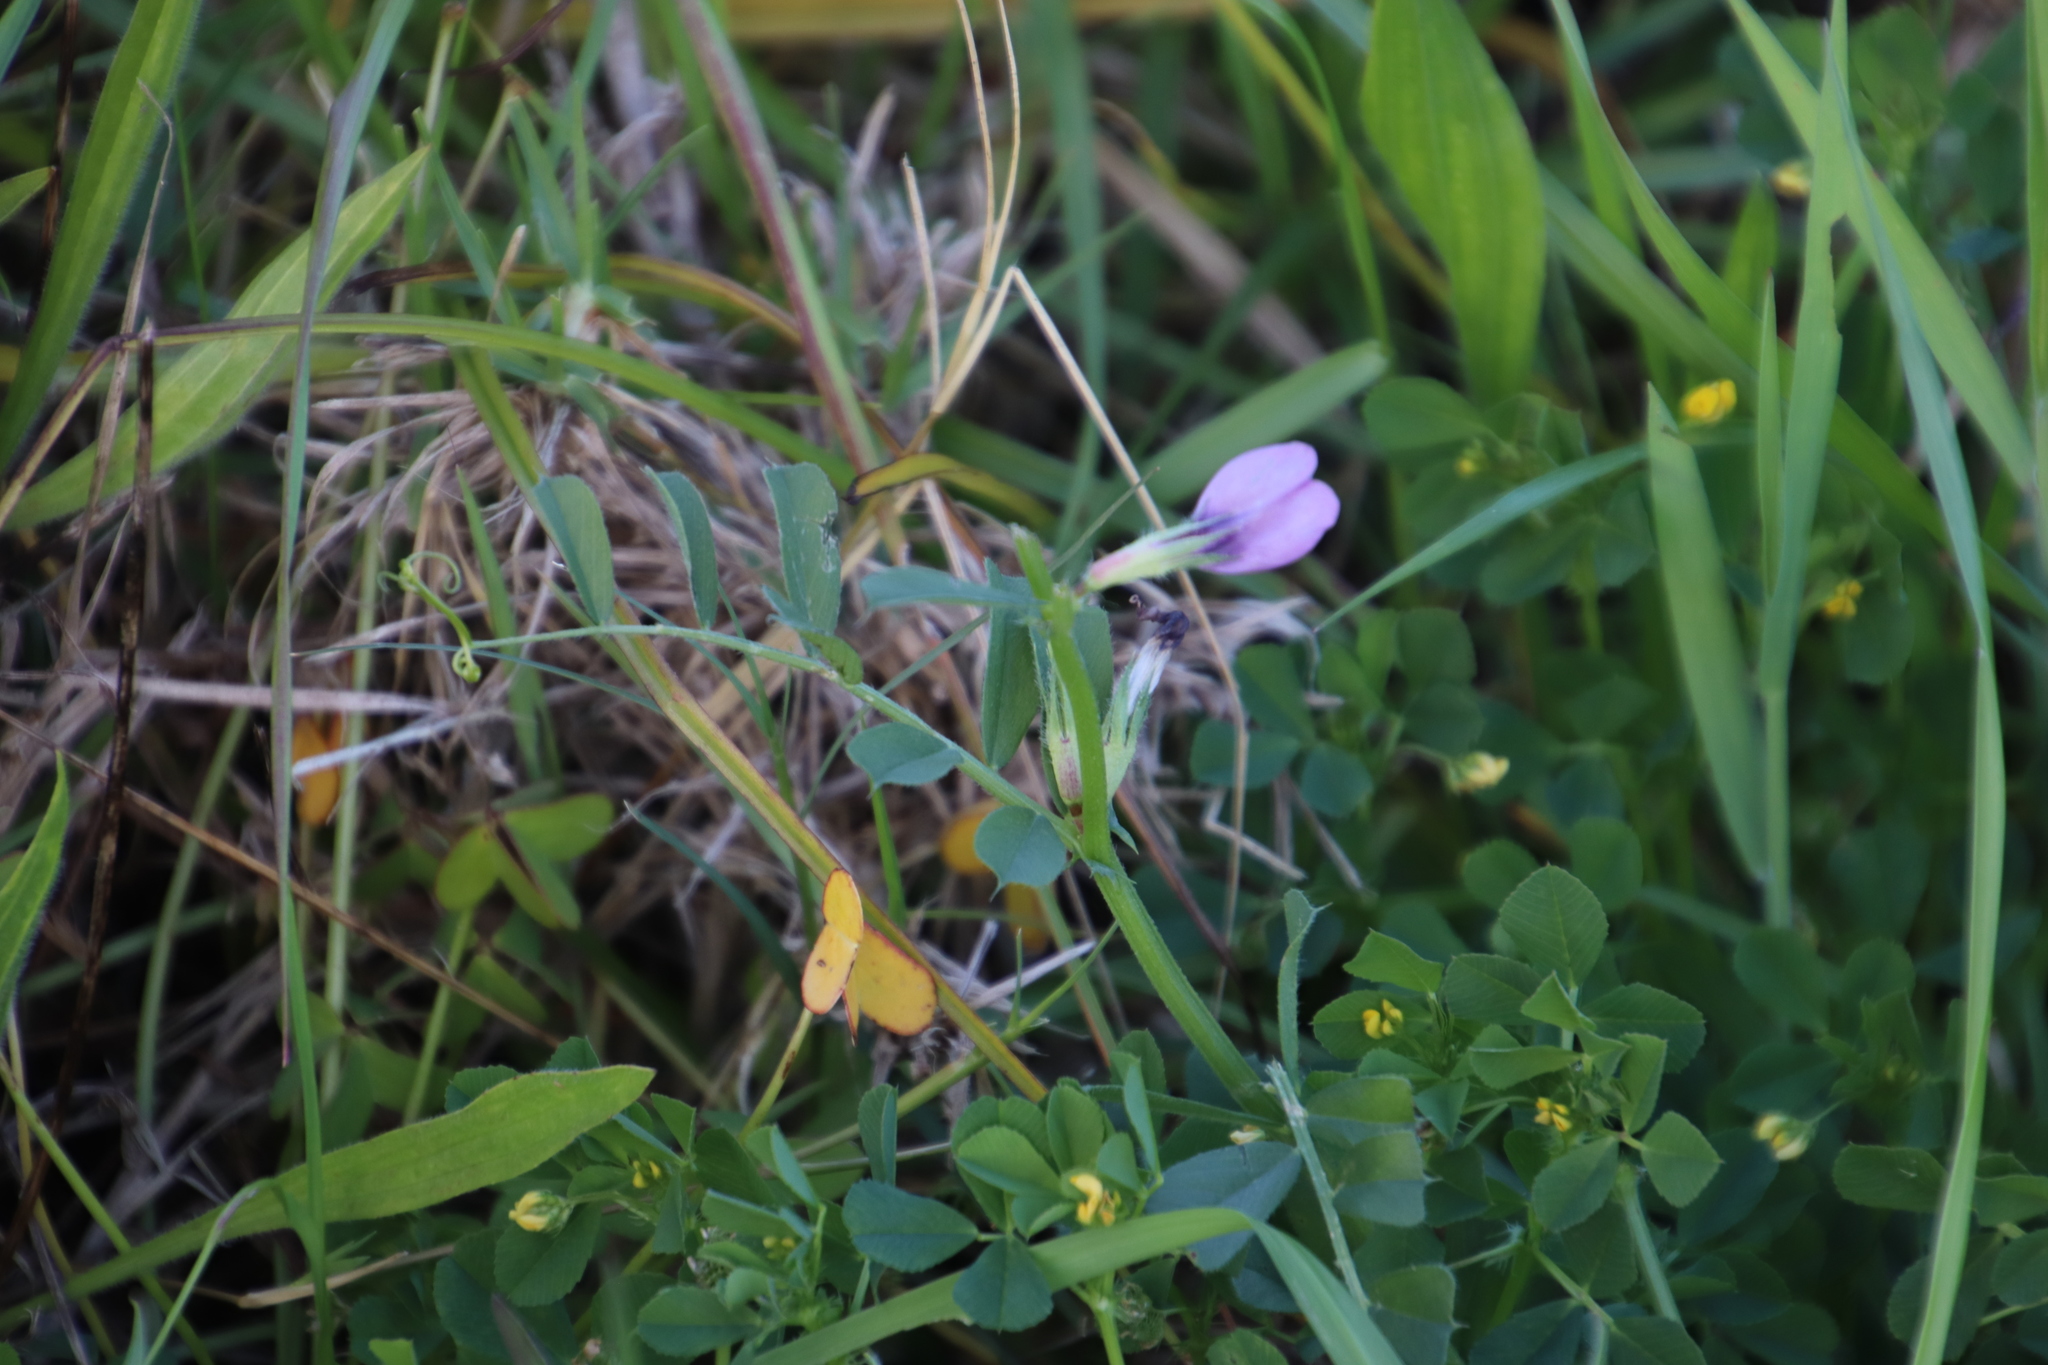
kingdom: Plantae
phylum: Tracheophyta
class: Magnoliopsida
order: Fabales
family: Fabaceae
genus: Vicia
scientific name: Vicia sativa
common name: Garden vetch
